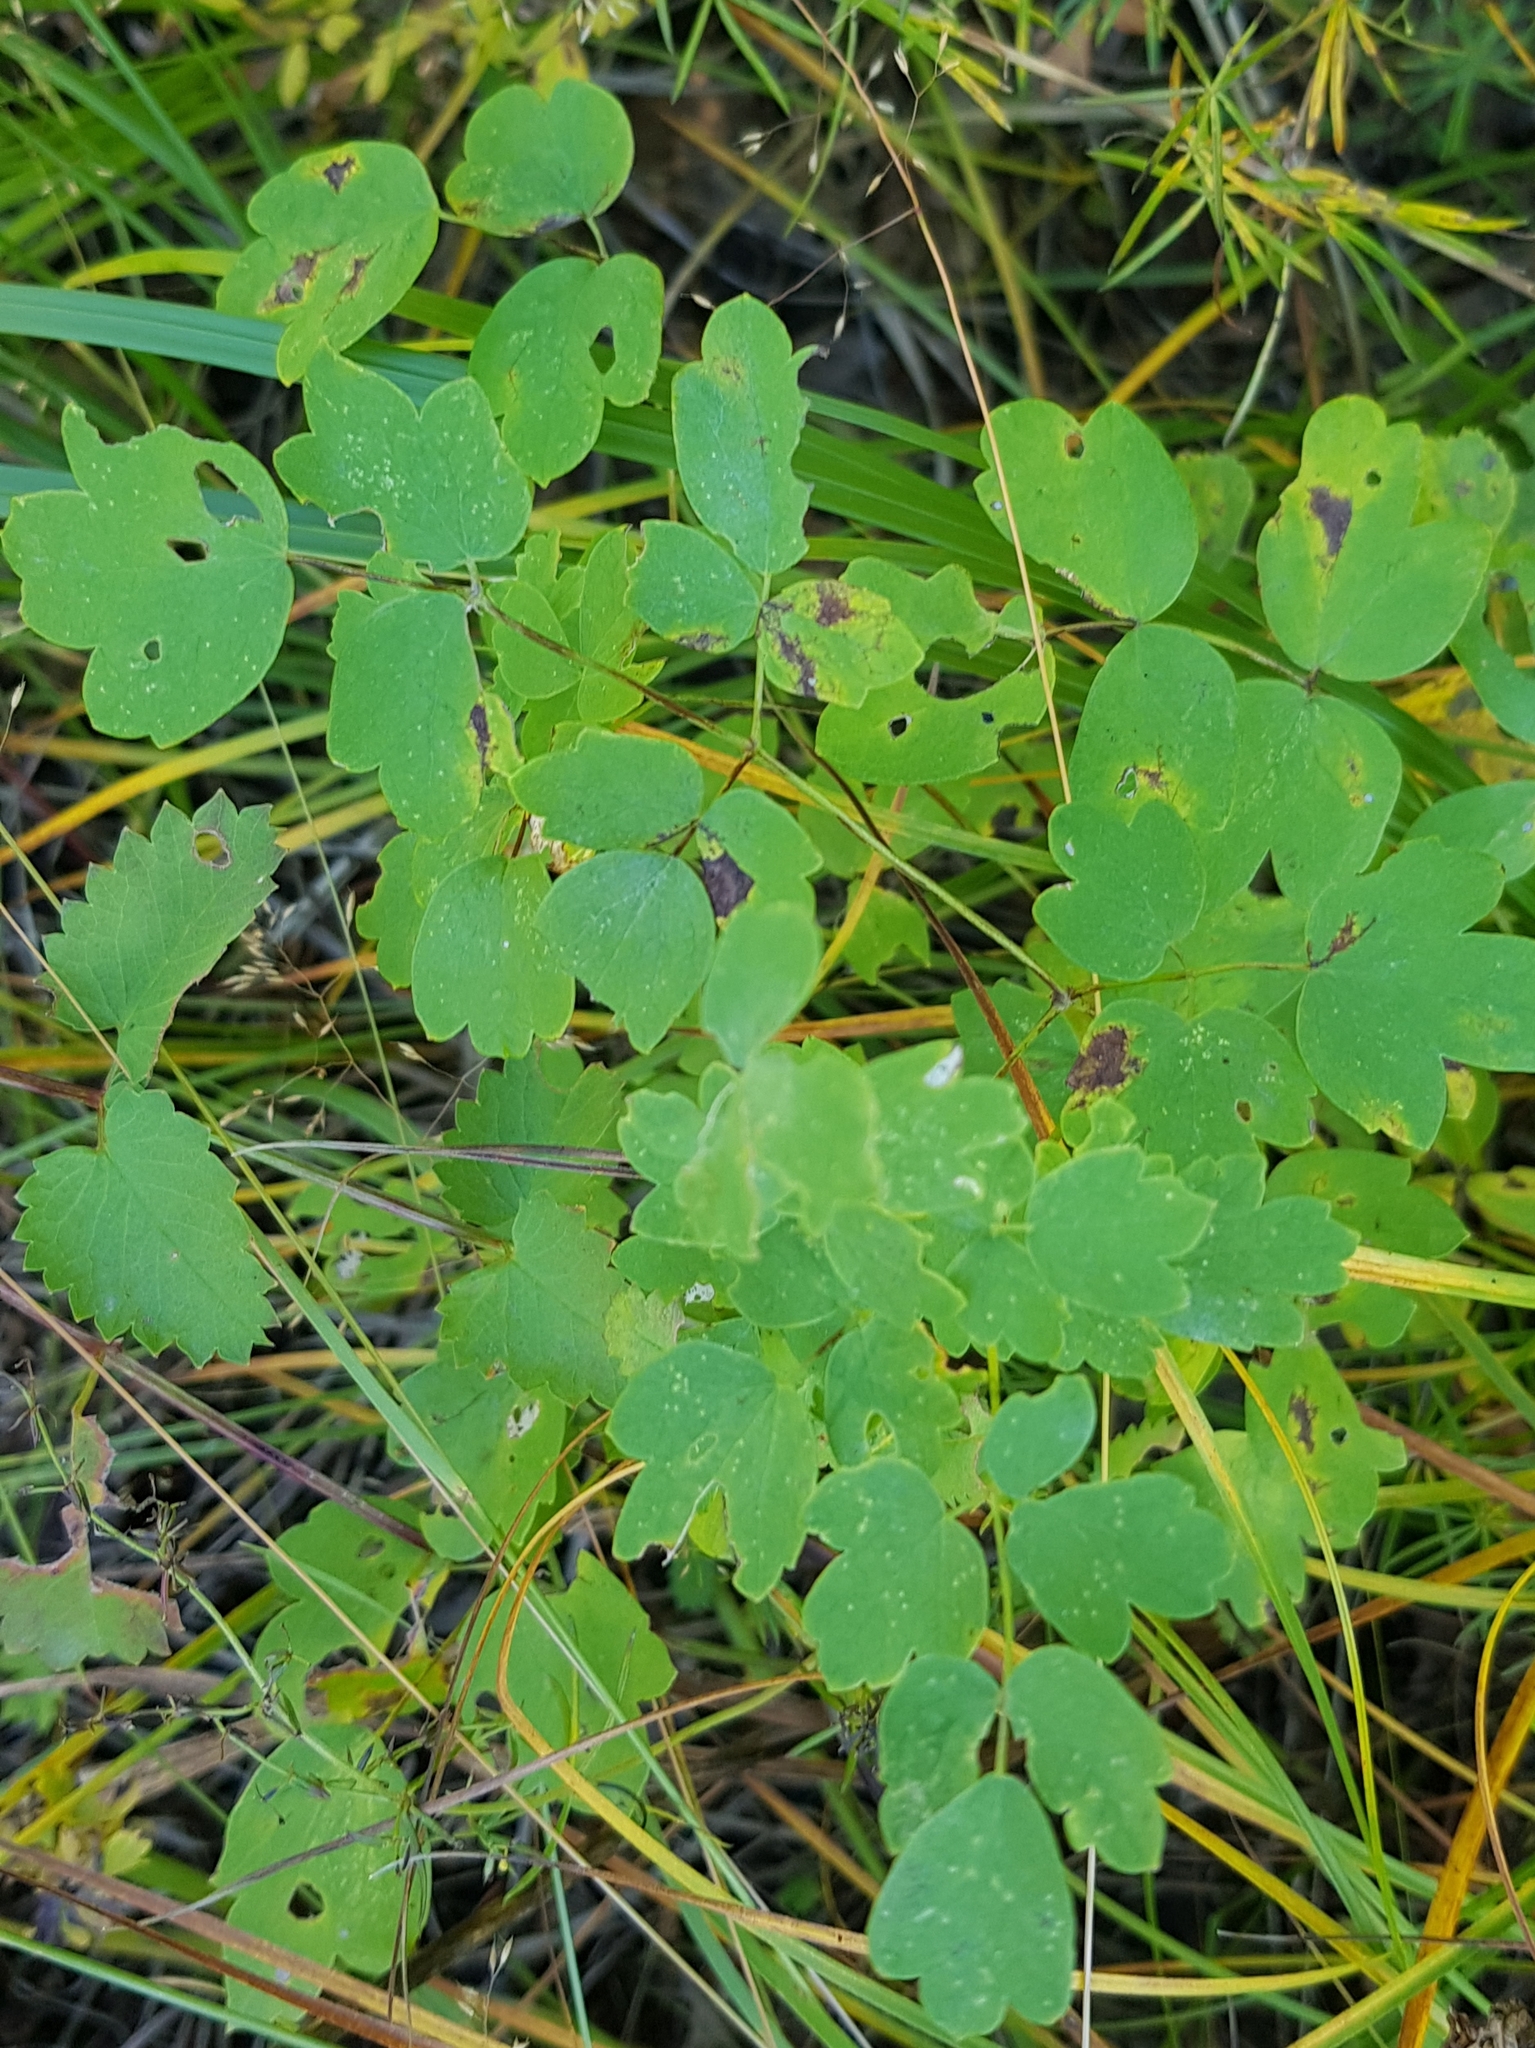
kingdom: Plantae
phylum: Tracheophyta
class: Magnoliopsida
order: Ranunculales
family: Ranunculaceae
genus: Thalictrum
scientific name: Thalictrum minus
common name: Lesser meadow-rue
